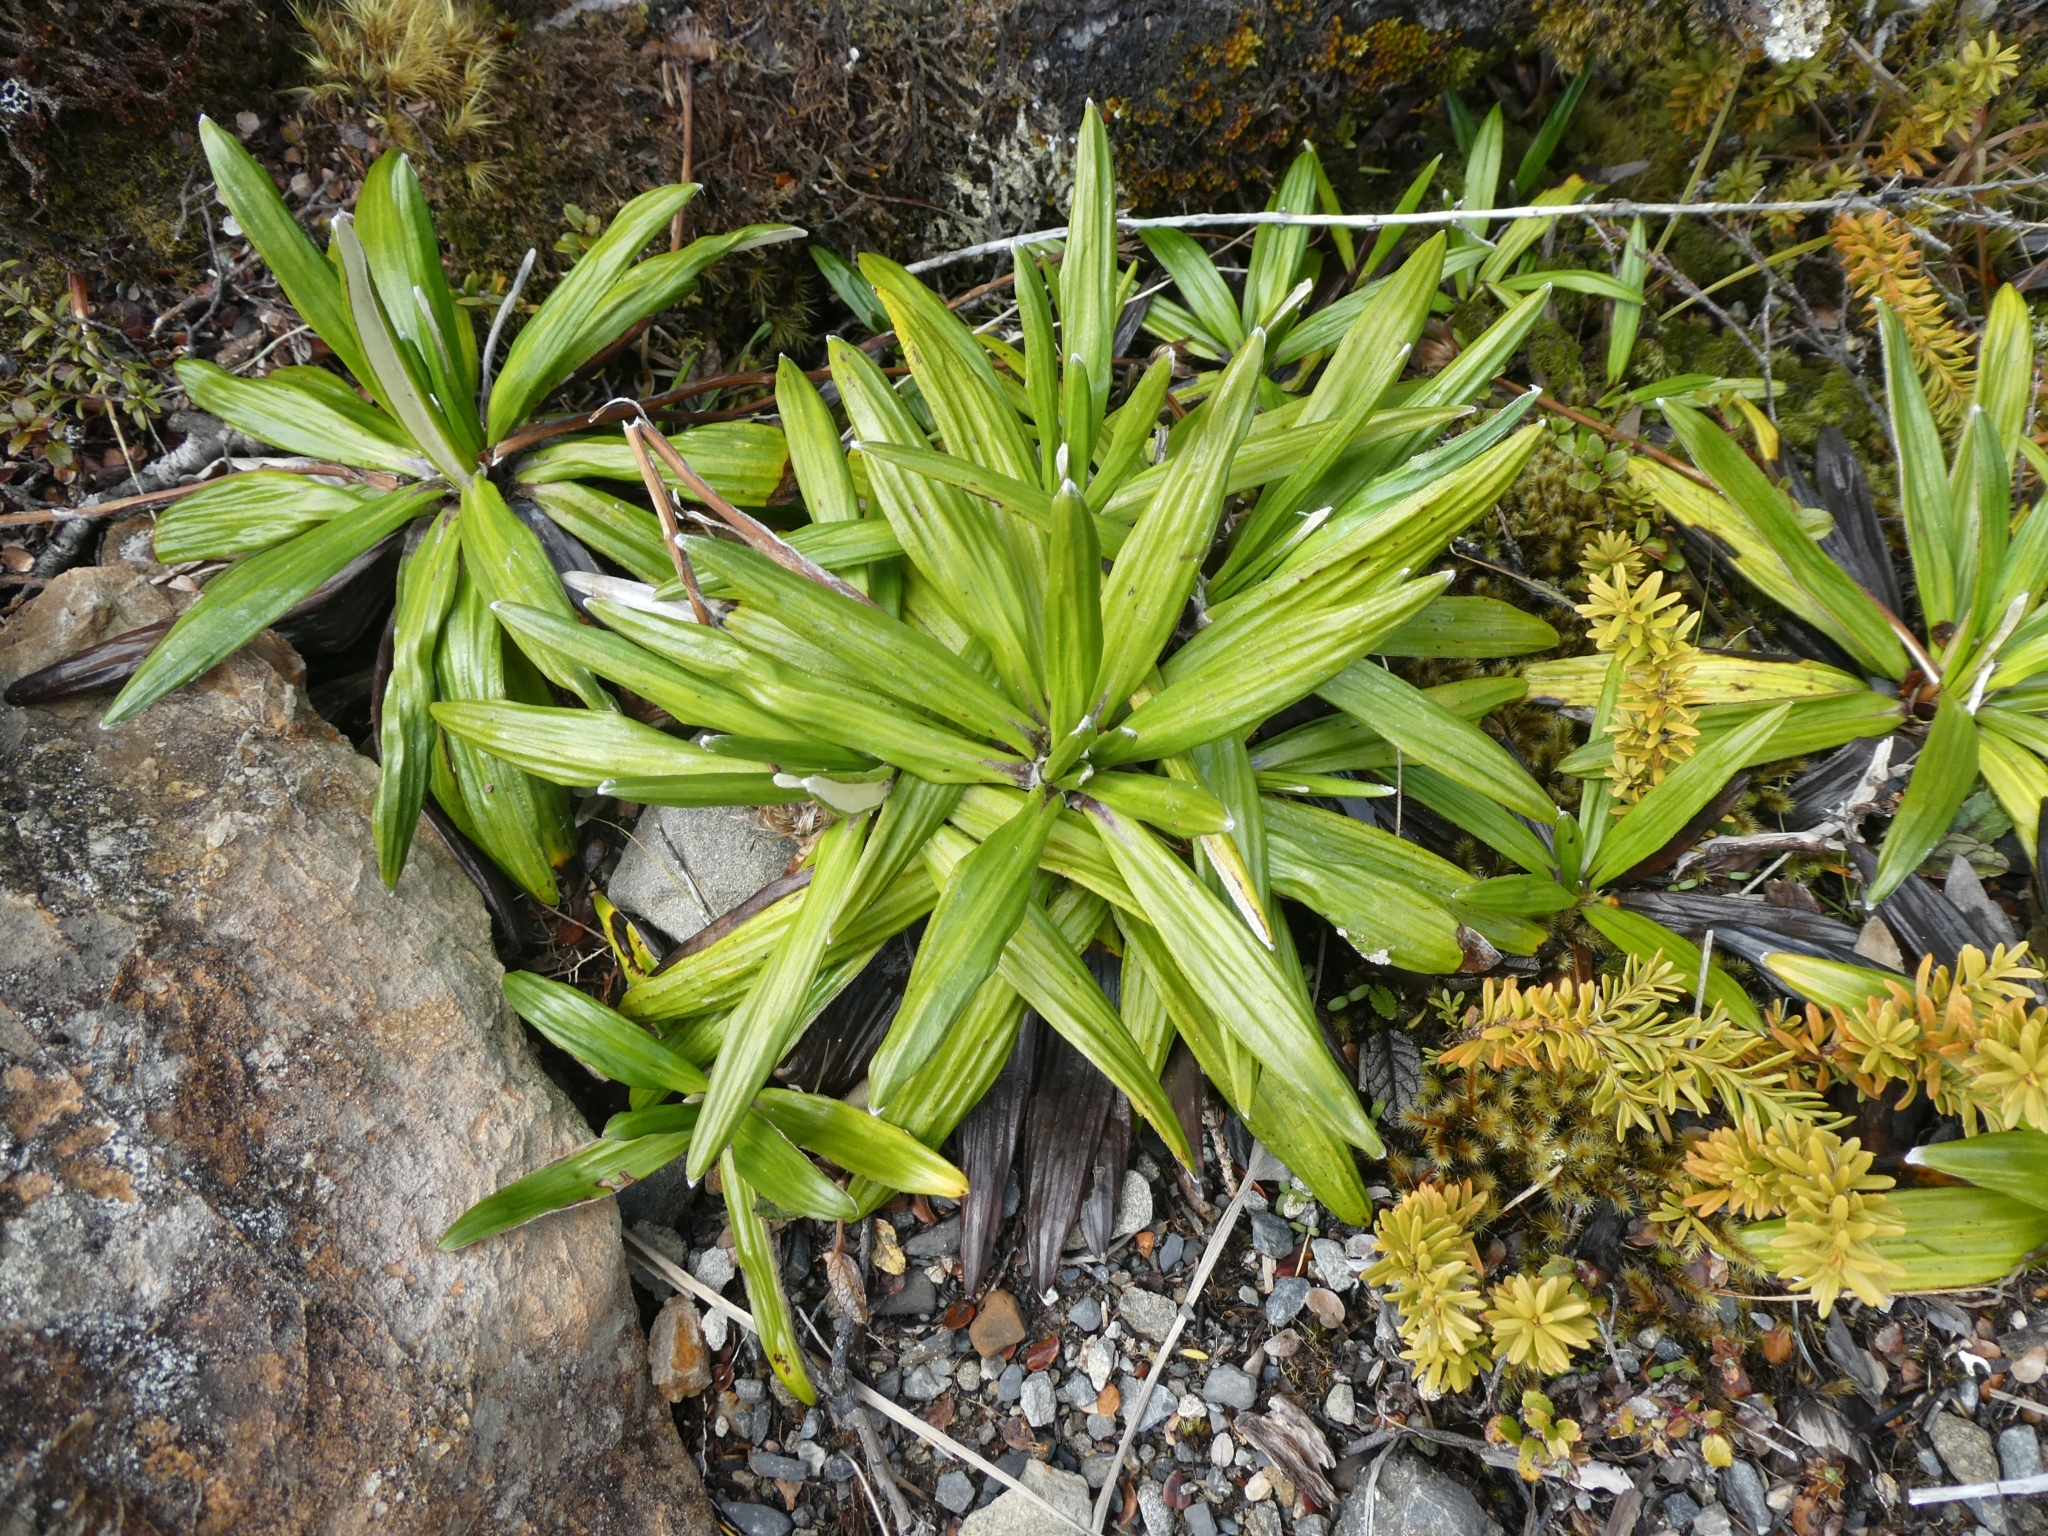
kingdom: Plantae
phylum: Tracheophyta
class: Magnoliopsida
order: Asterales
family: Asteraceae
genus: Celmisia
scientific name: Celmisia spectabilis
